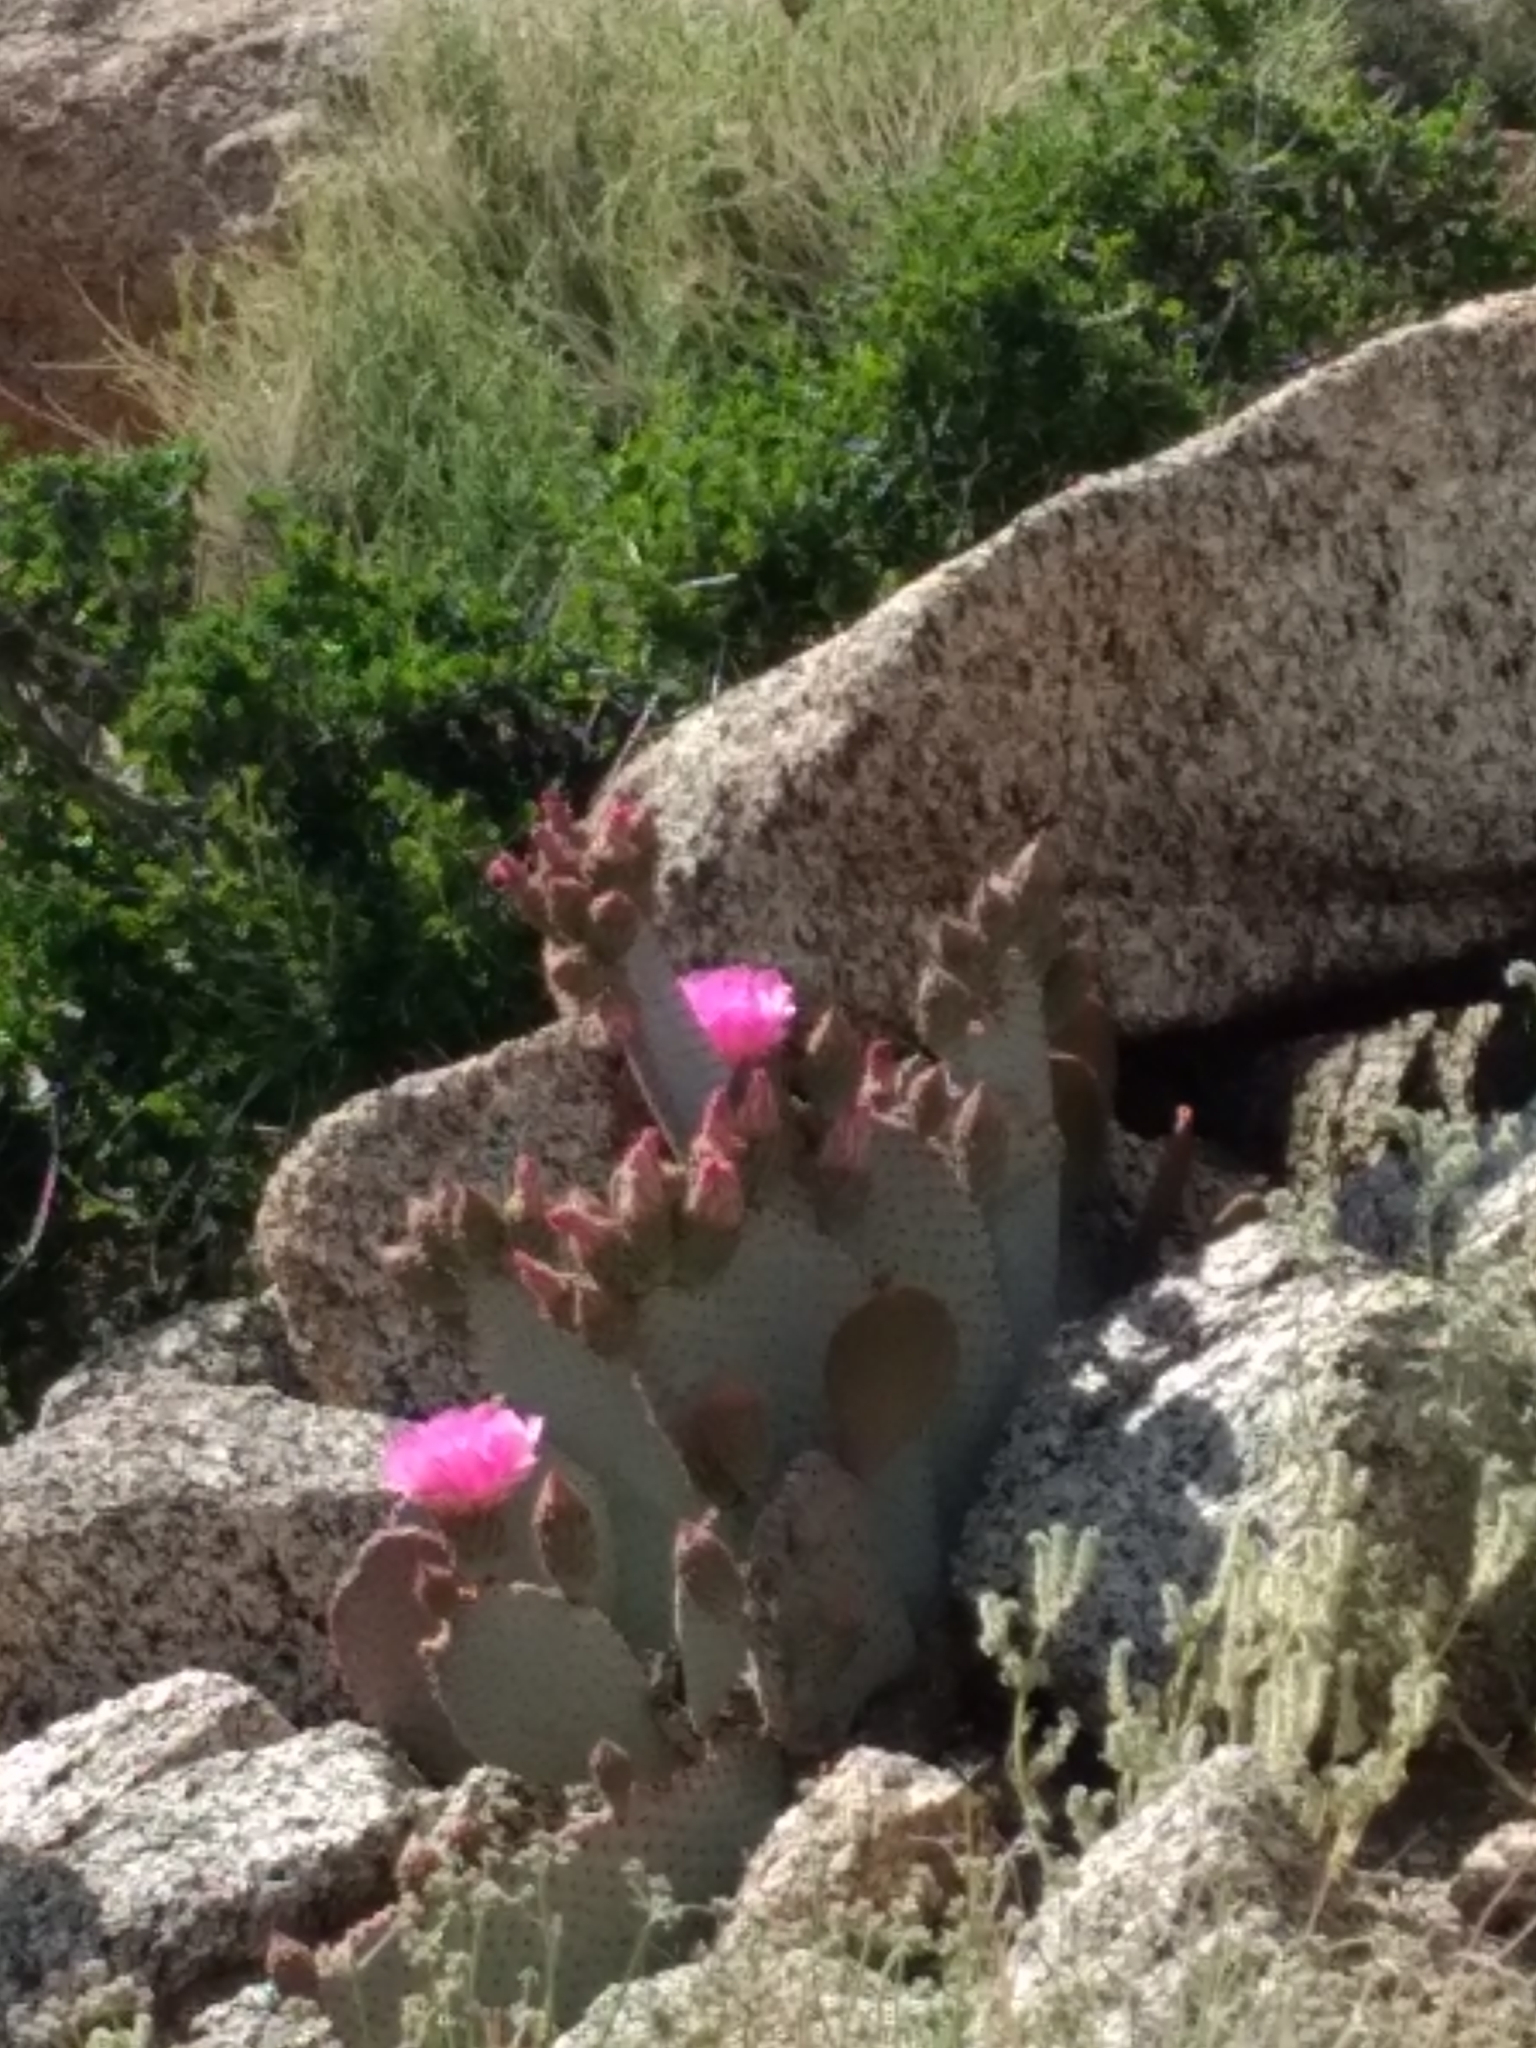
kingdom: Plantae
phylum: Tracheophyta
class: Magnoliopsida
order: Caryophyllales
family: Cactaceae
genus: Opuntia
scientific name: Opuntia basilaris
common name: Beavertail prickly-pear
